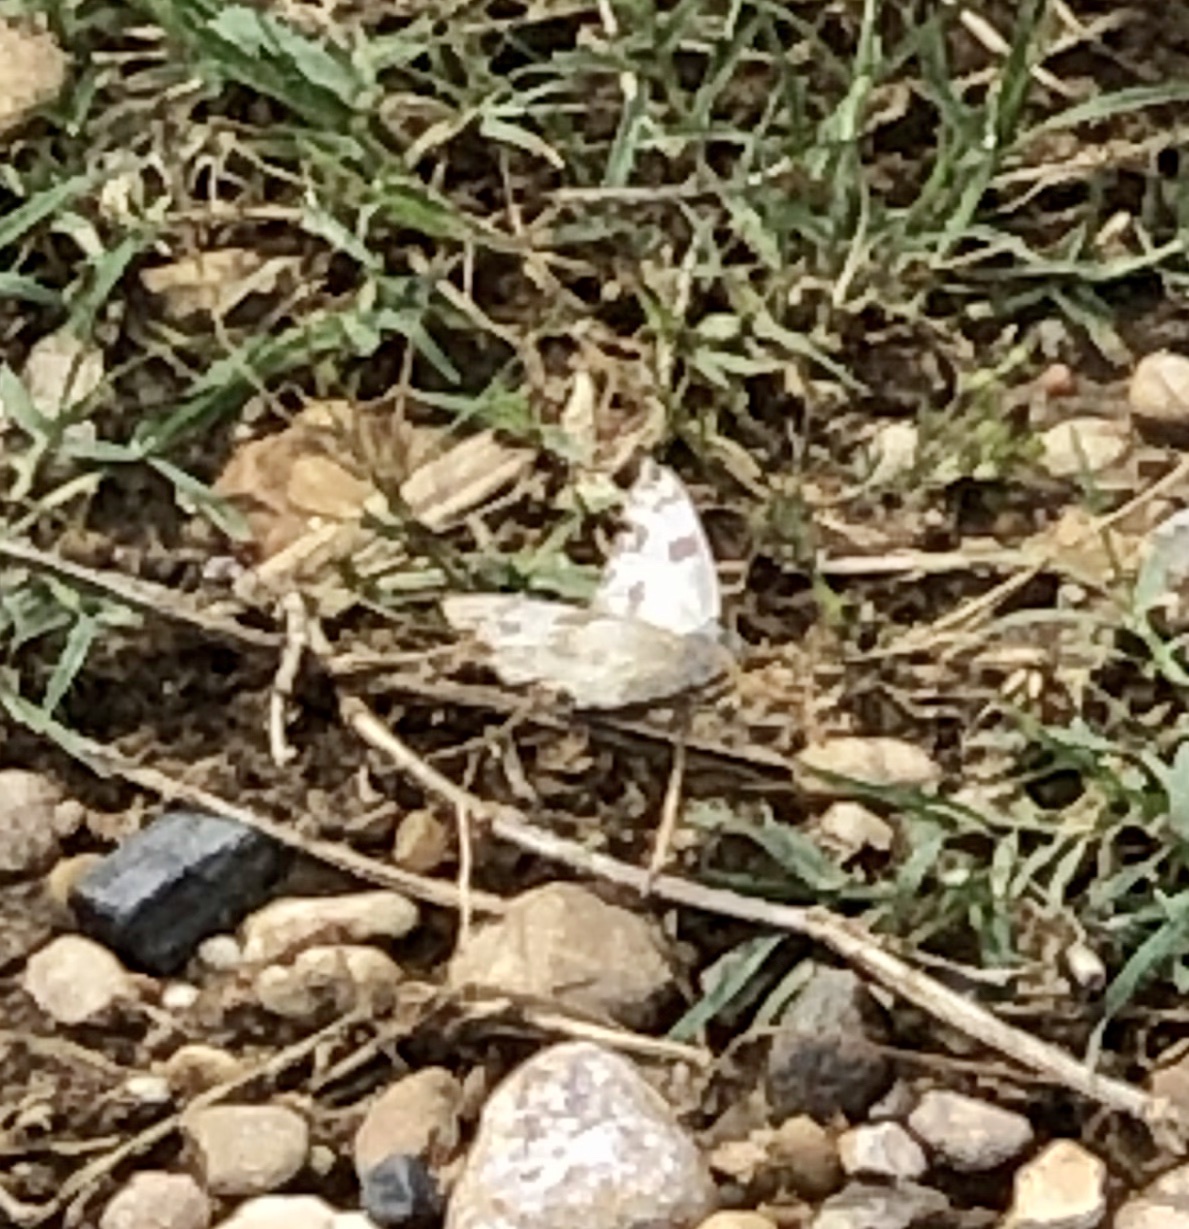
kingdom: Animalia
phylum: Arthropoda
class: Insecta
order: Lepidoptera
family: Pieridae
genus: Pontia
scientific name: Pontia protodice
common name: Checkered white
